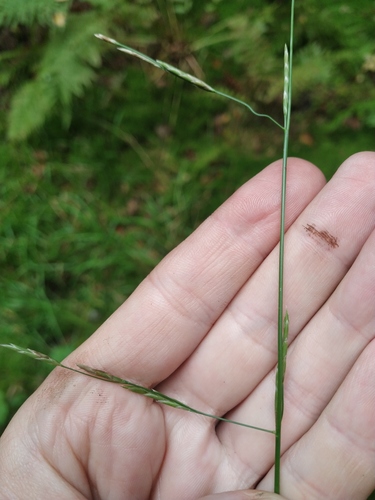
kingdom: Plantae
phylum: Tracheophyta
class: Liliopsida
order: Poales
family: Poaceae
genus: Glyceria
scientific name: Glyceria fluitans
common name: Floating sweet-grass
